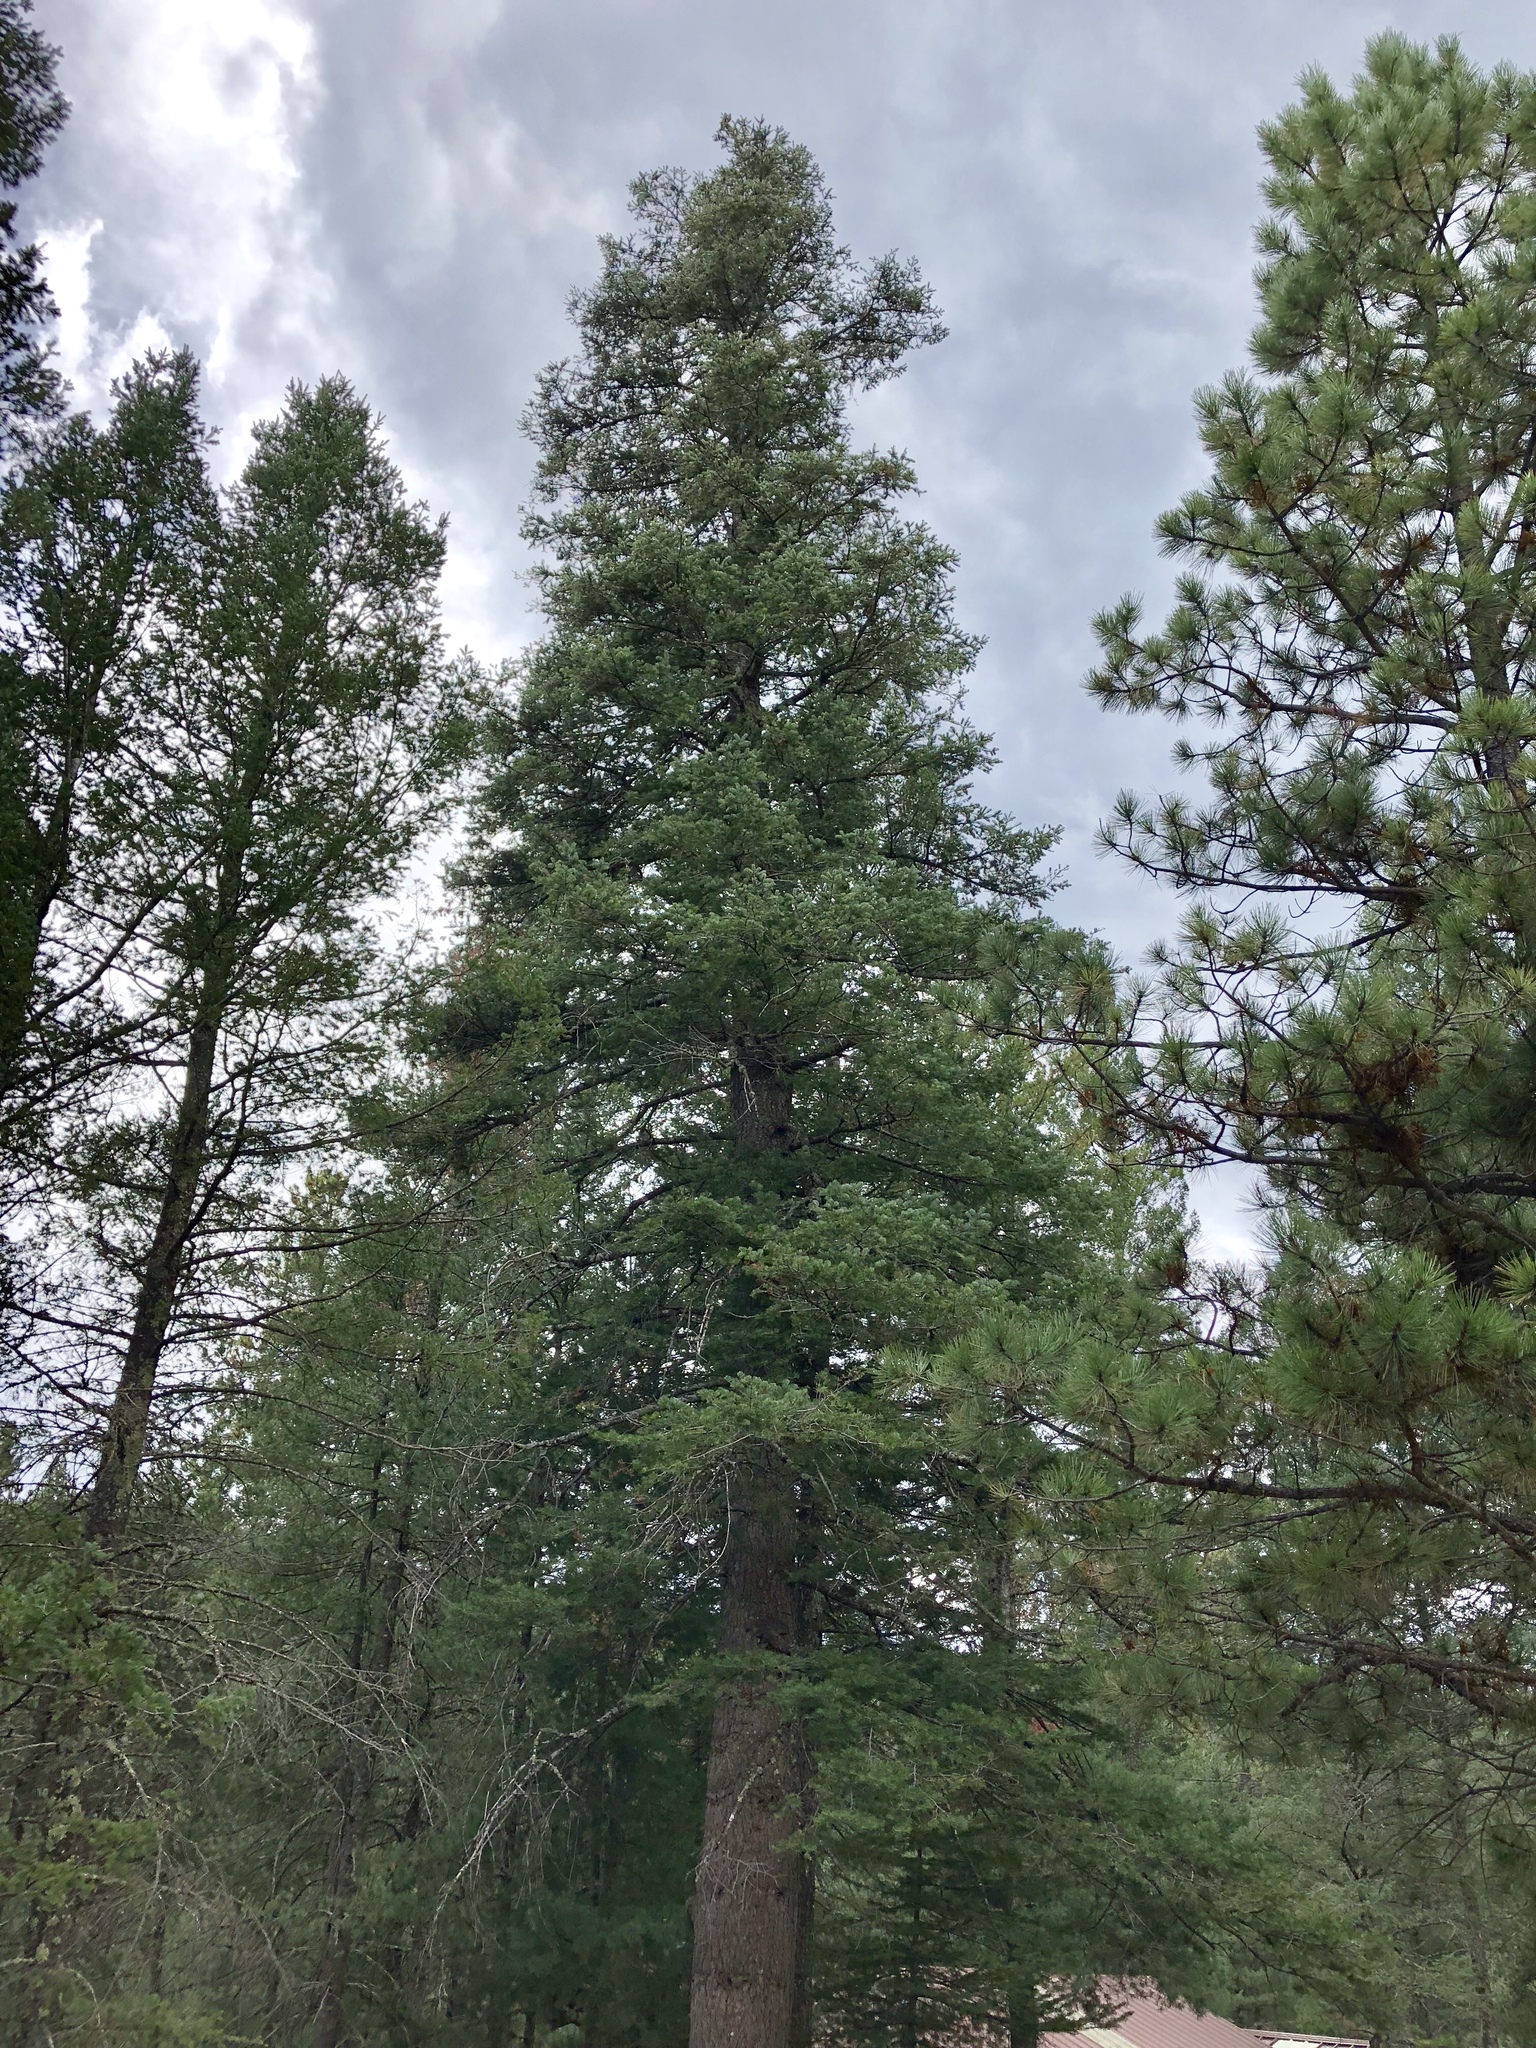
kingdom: Plantae
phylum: Tracheophyta
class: Pinopsida
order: Pinales
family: Pinaceae
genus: Abies
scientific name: Abies concolor
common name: Colorado fir
